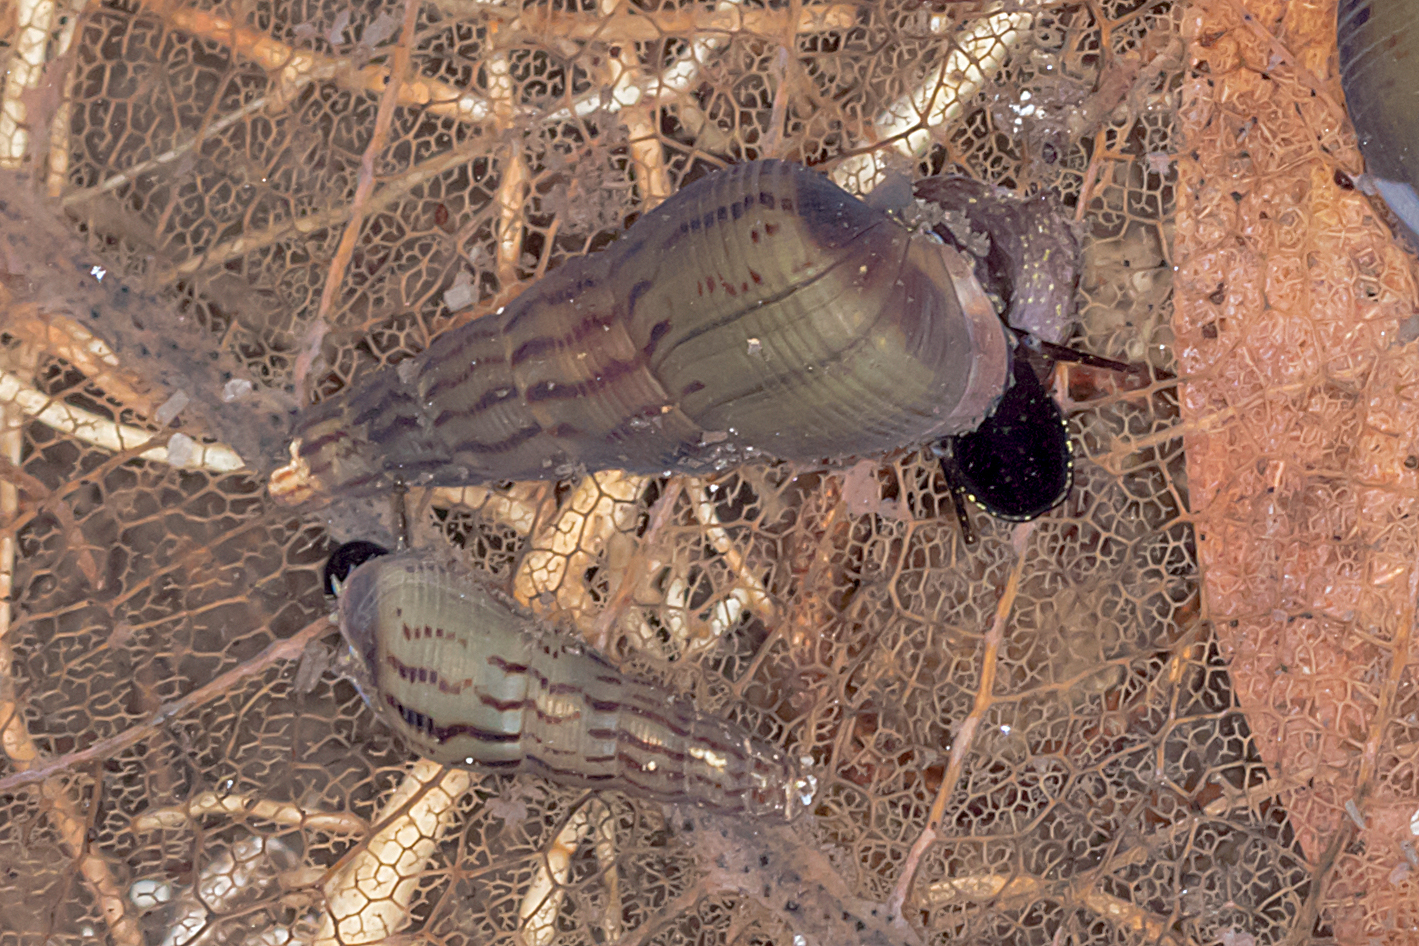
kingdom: Animalia
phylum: Mollusca
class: Gastropoda
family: Thiaridae
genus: Melanoides
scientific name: Melanoides tuberculata
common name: Red-rim melania
